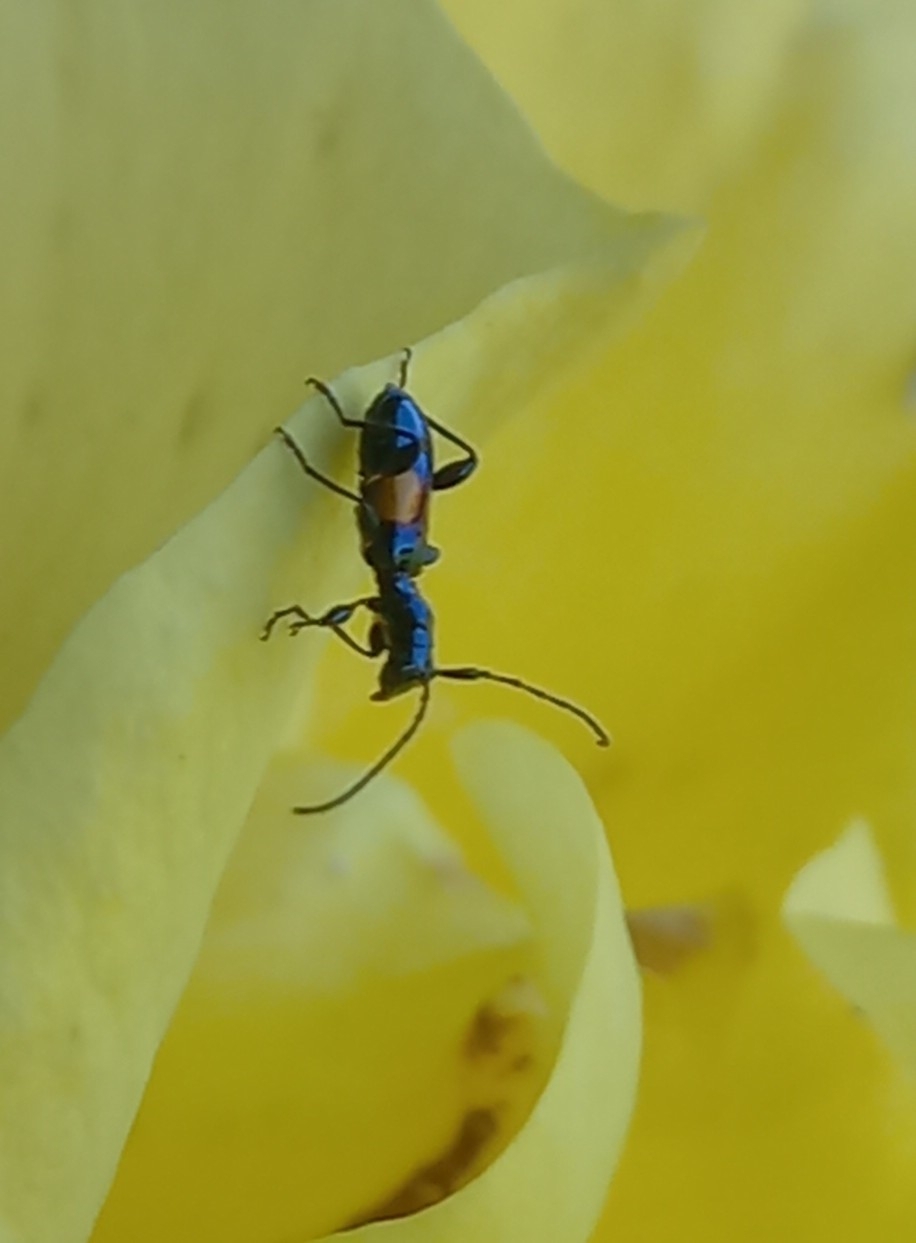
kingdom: Animalia
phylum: Arthropoda
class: Insecta
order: Coleoptera
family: Cerambycidae
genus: Zorion
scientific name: Zorion guttigerum
